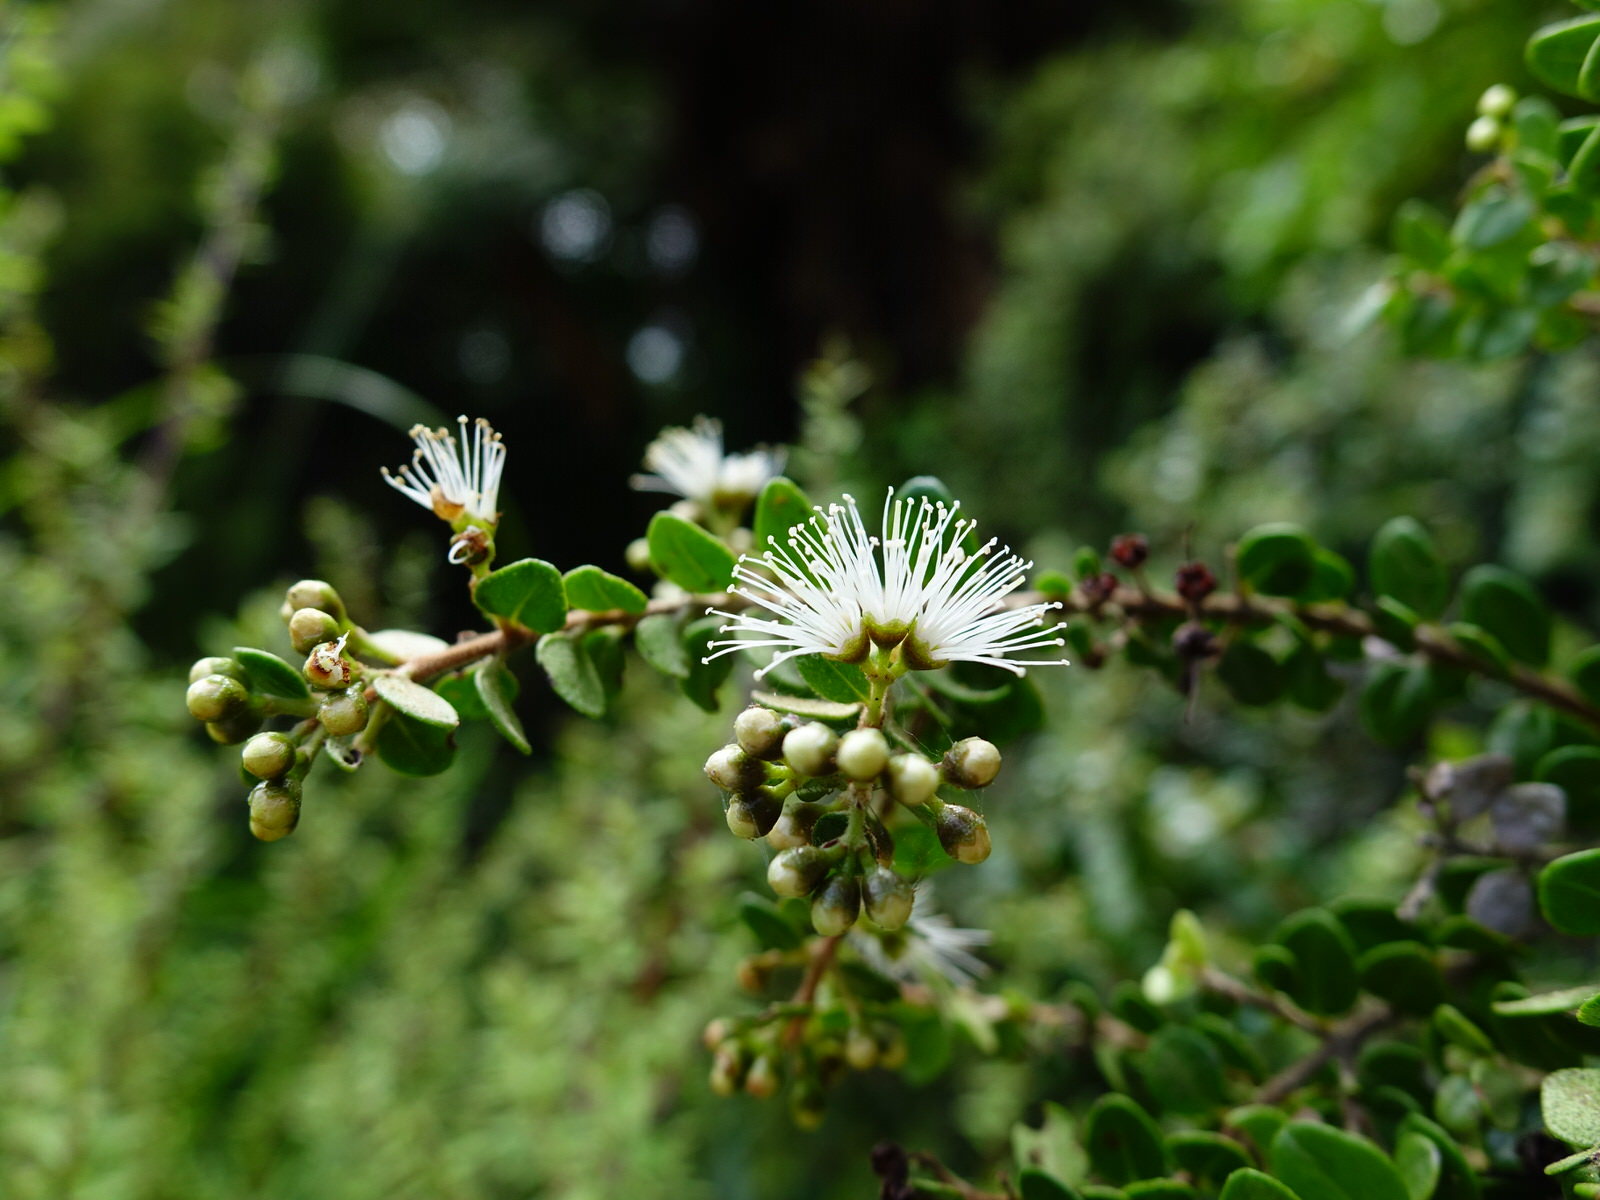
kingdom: Plantae
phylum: Tracheophyta
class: Magnoliopsida
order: Myrtales
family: Myrtaceae
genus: Metrosideros
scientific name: Metrosideros perforata
